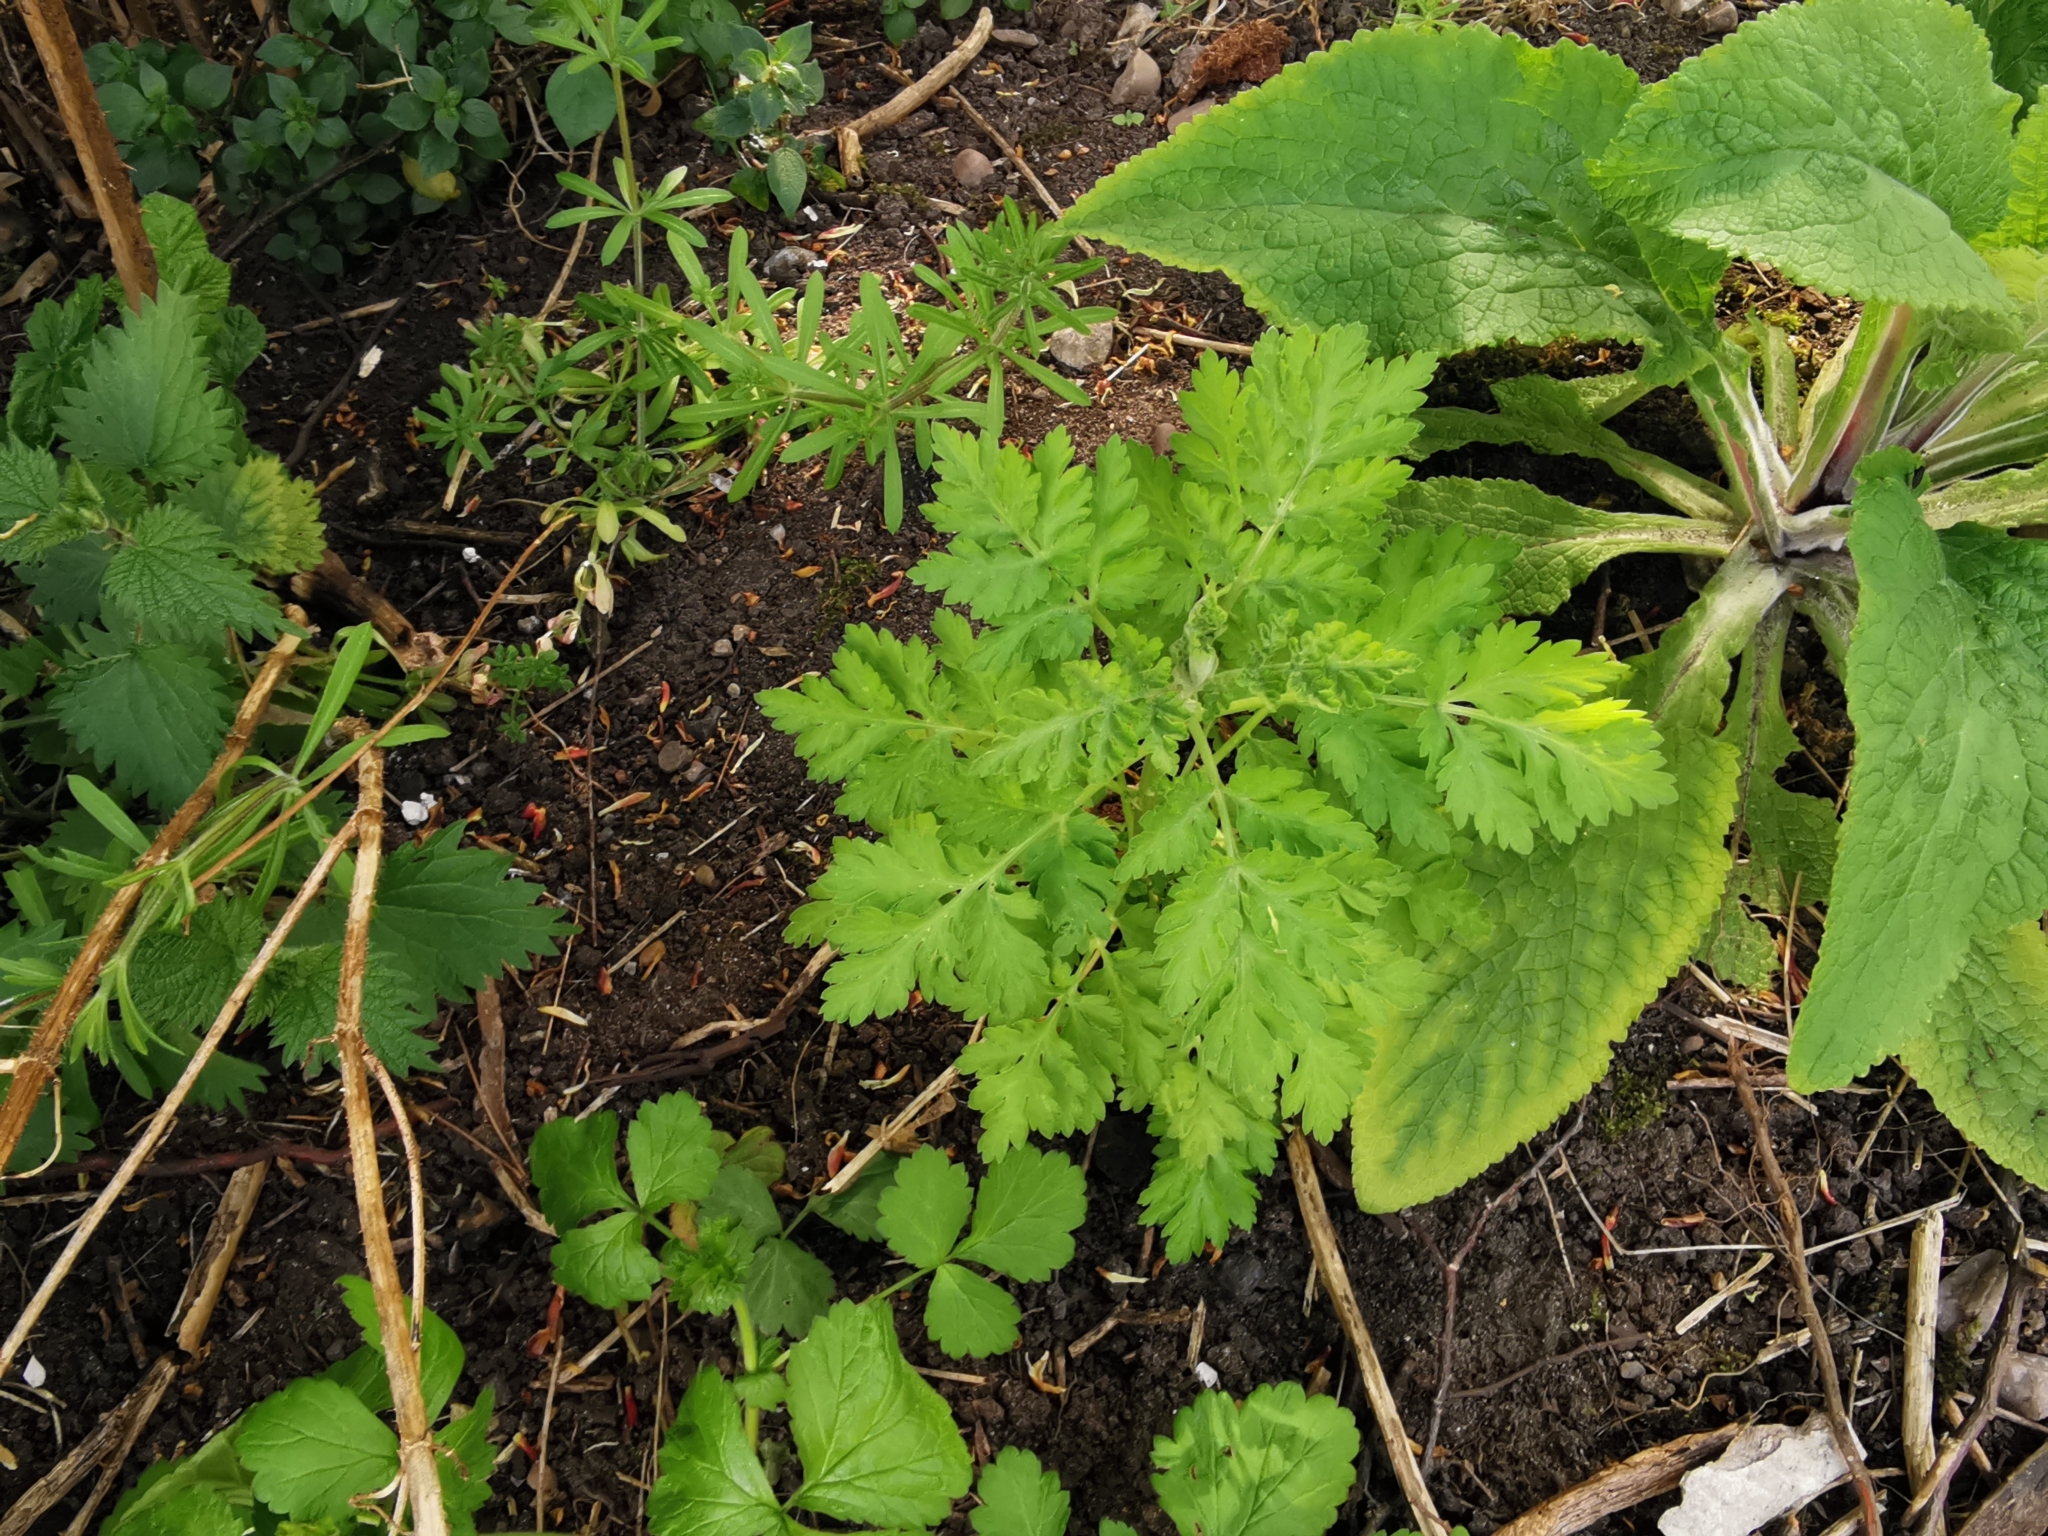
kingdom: Plantae
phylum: Tracheophyta
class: Magnoliopsida
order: Asterales
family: Asteraceae
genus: Tanacetum
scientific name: Tanacetum parthenium
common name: Feverfew
